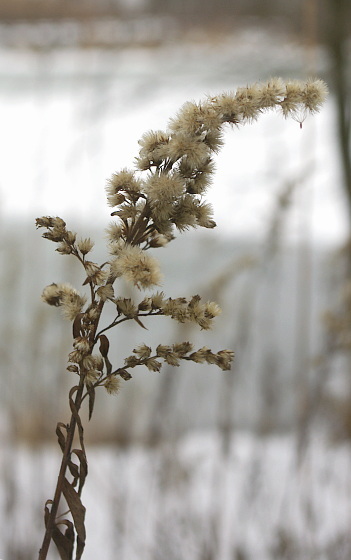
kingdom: Plantae
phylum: Tracheophyta
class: Magnoliopsida
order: Asterales
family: Asteraceae
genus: Solidago
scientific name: Solidago gigantea
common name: Giant goldenrod
